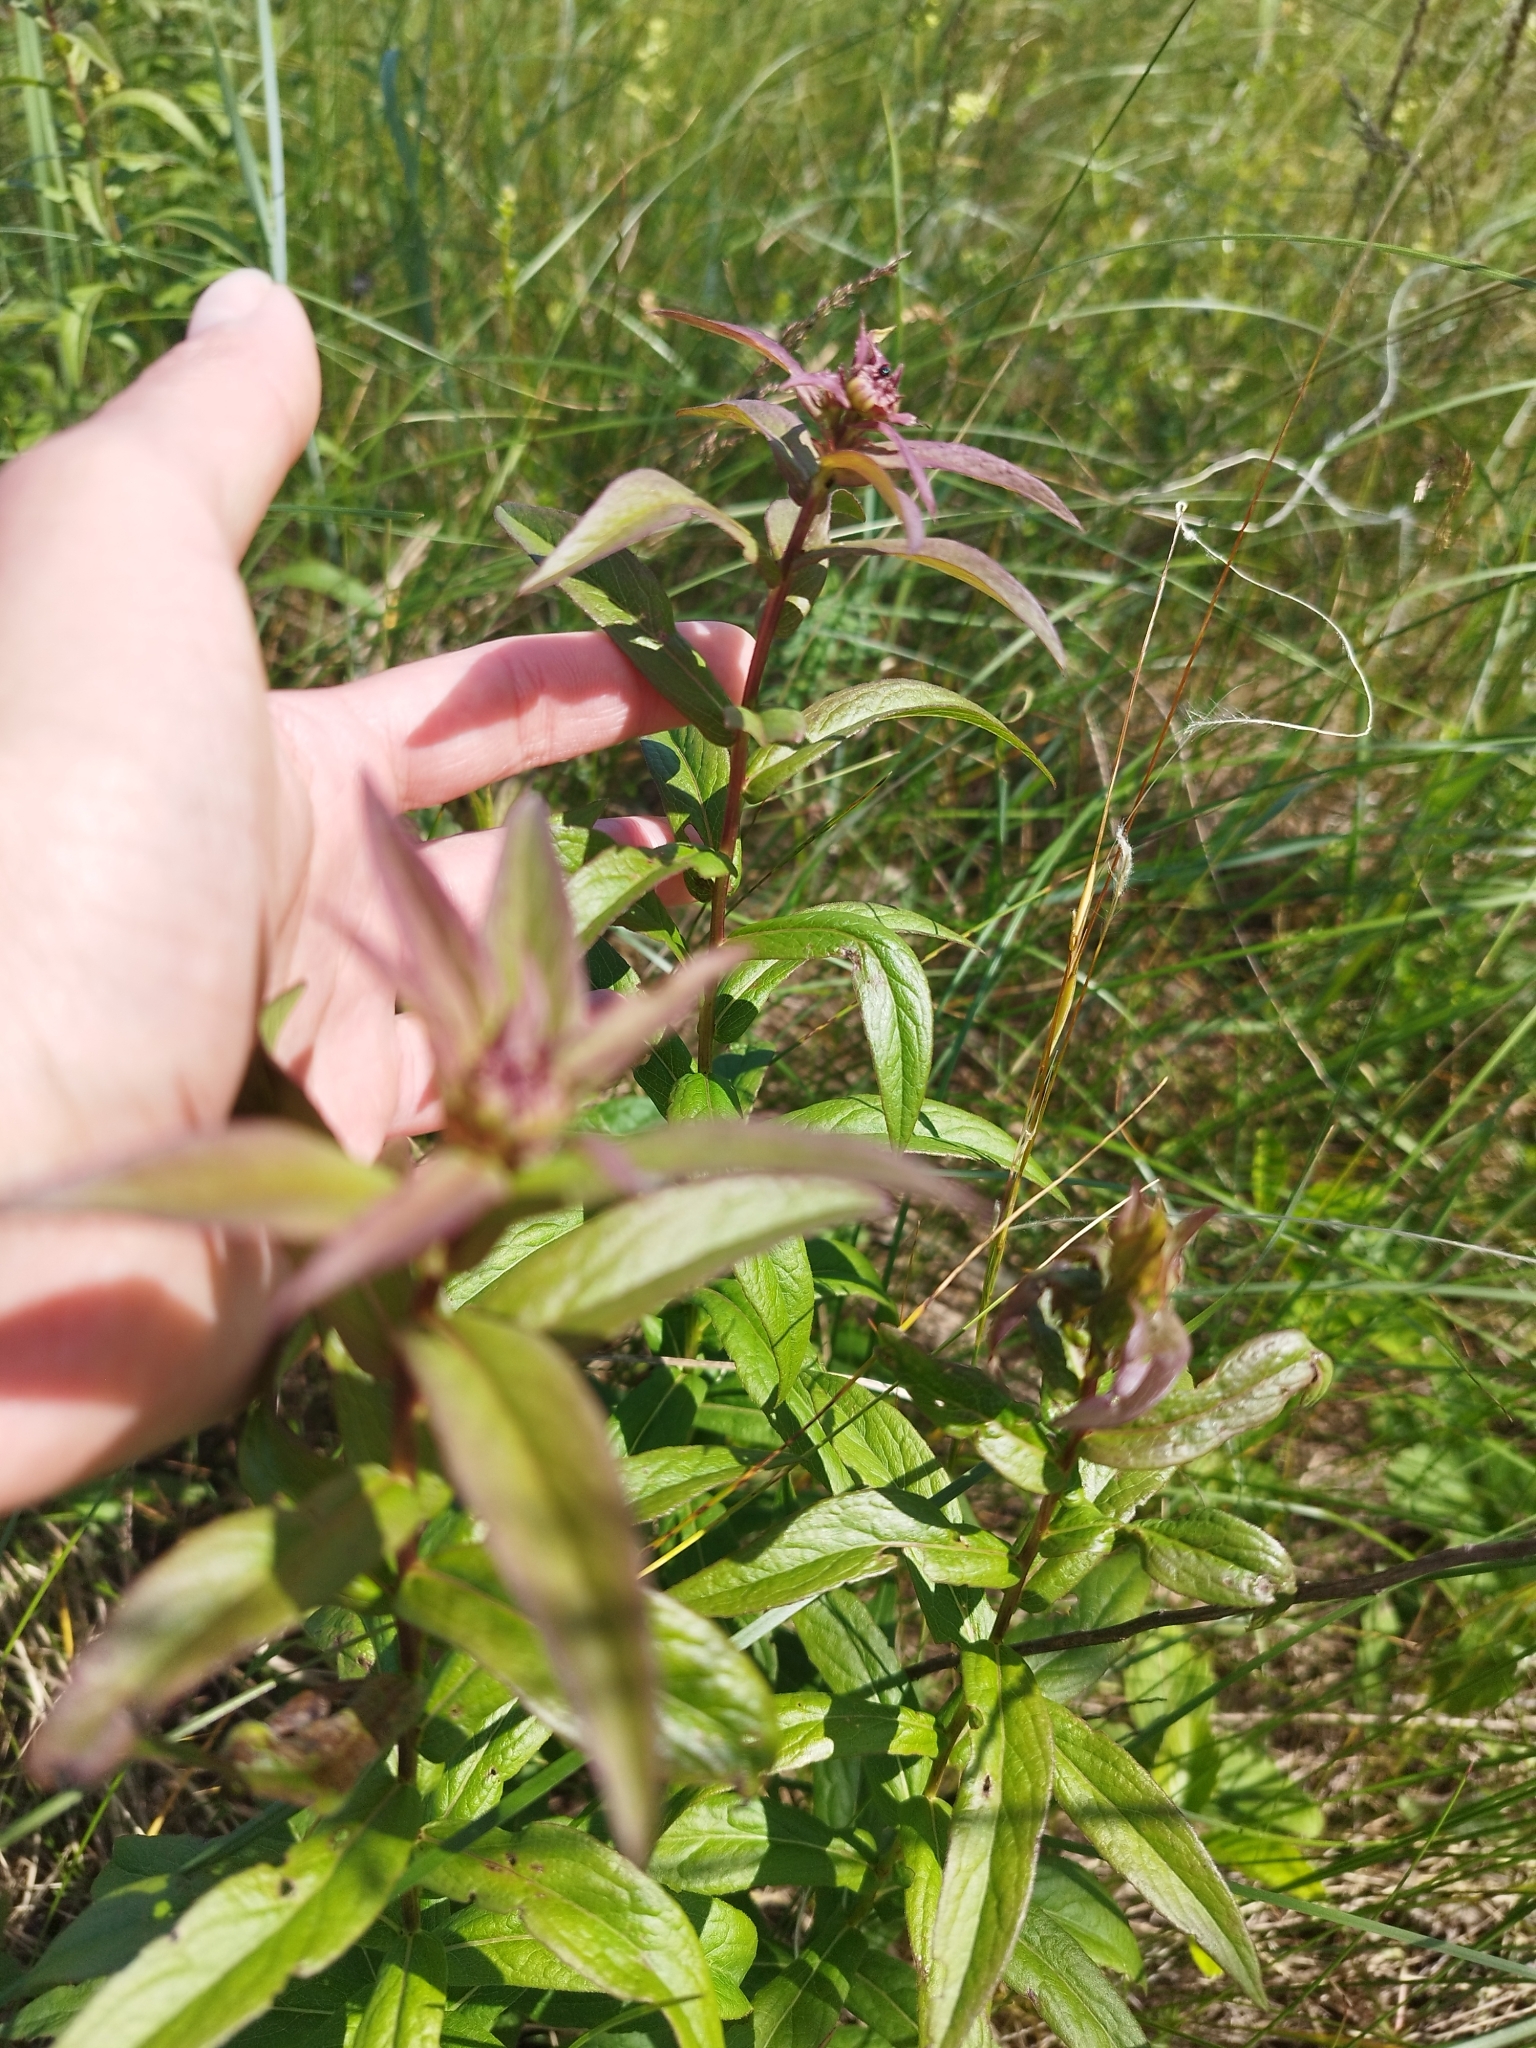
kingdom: Plantae
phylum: Tracheophyta
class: Magnoliopsida
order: Asterales
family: Asteraceae
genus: Pentanema
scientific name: Pentanema salicinum
